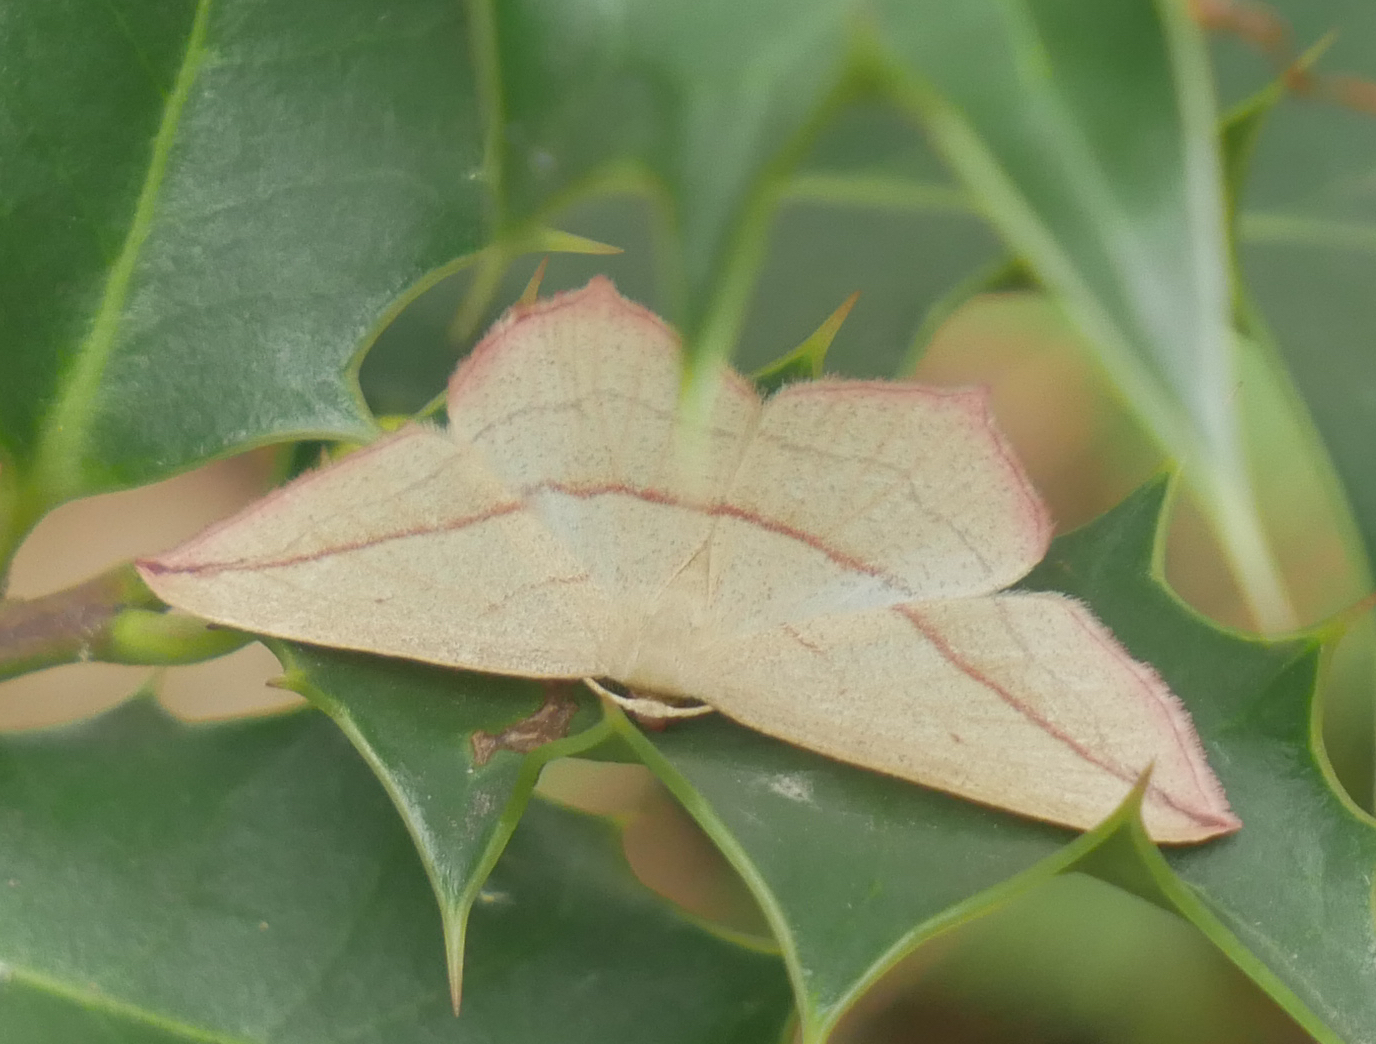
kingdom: Animalia
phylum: Arthropoda
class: Insecta
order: Lepidoptera
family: Geometridae
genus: Timandra
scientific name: Timandra comae
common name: Blood-vein
